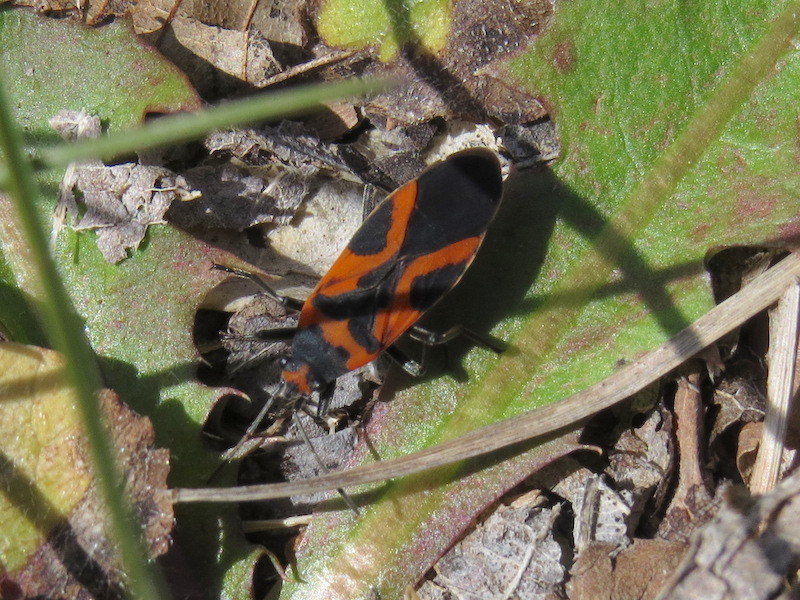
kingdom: Animalia
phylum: Arthropoda
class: Insecta
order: Hemiptera
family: Lygaeidae
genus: Lygaeus
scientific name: Lygaeus turcicus
